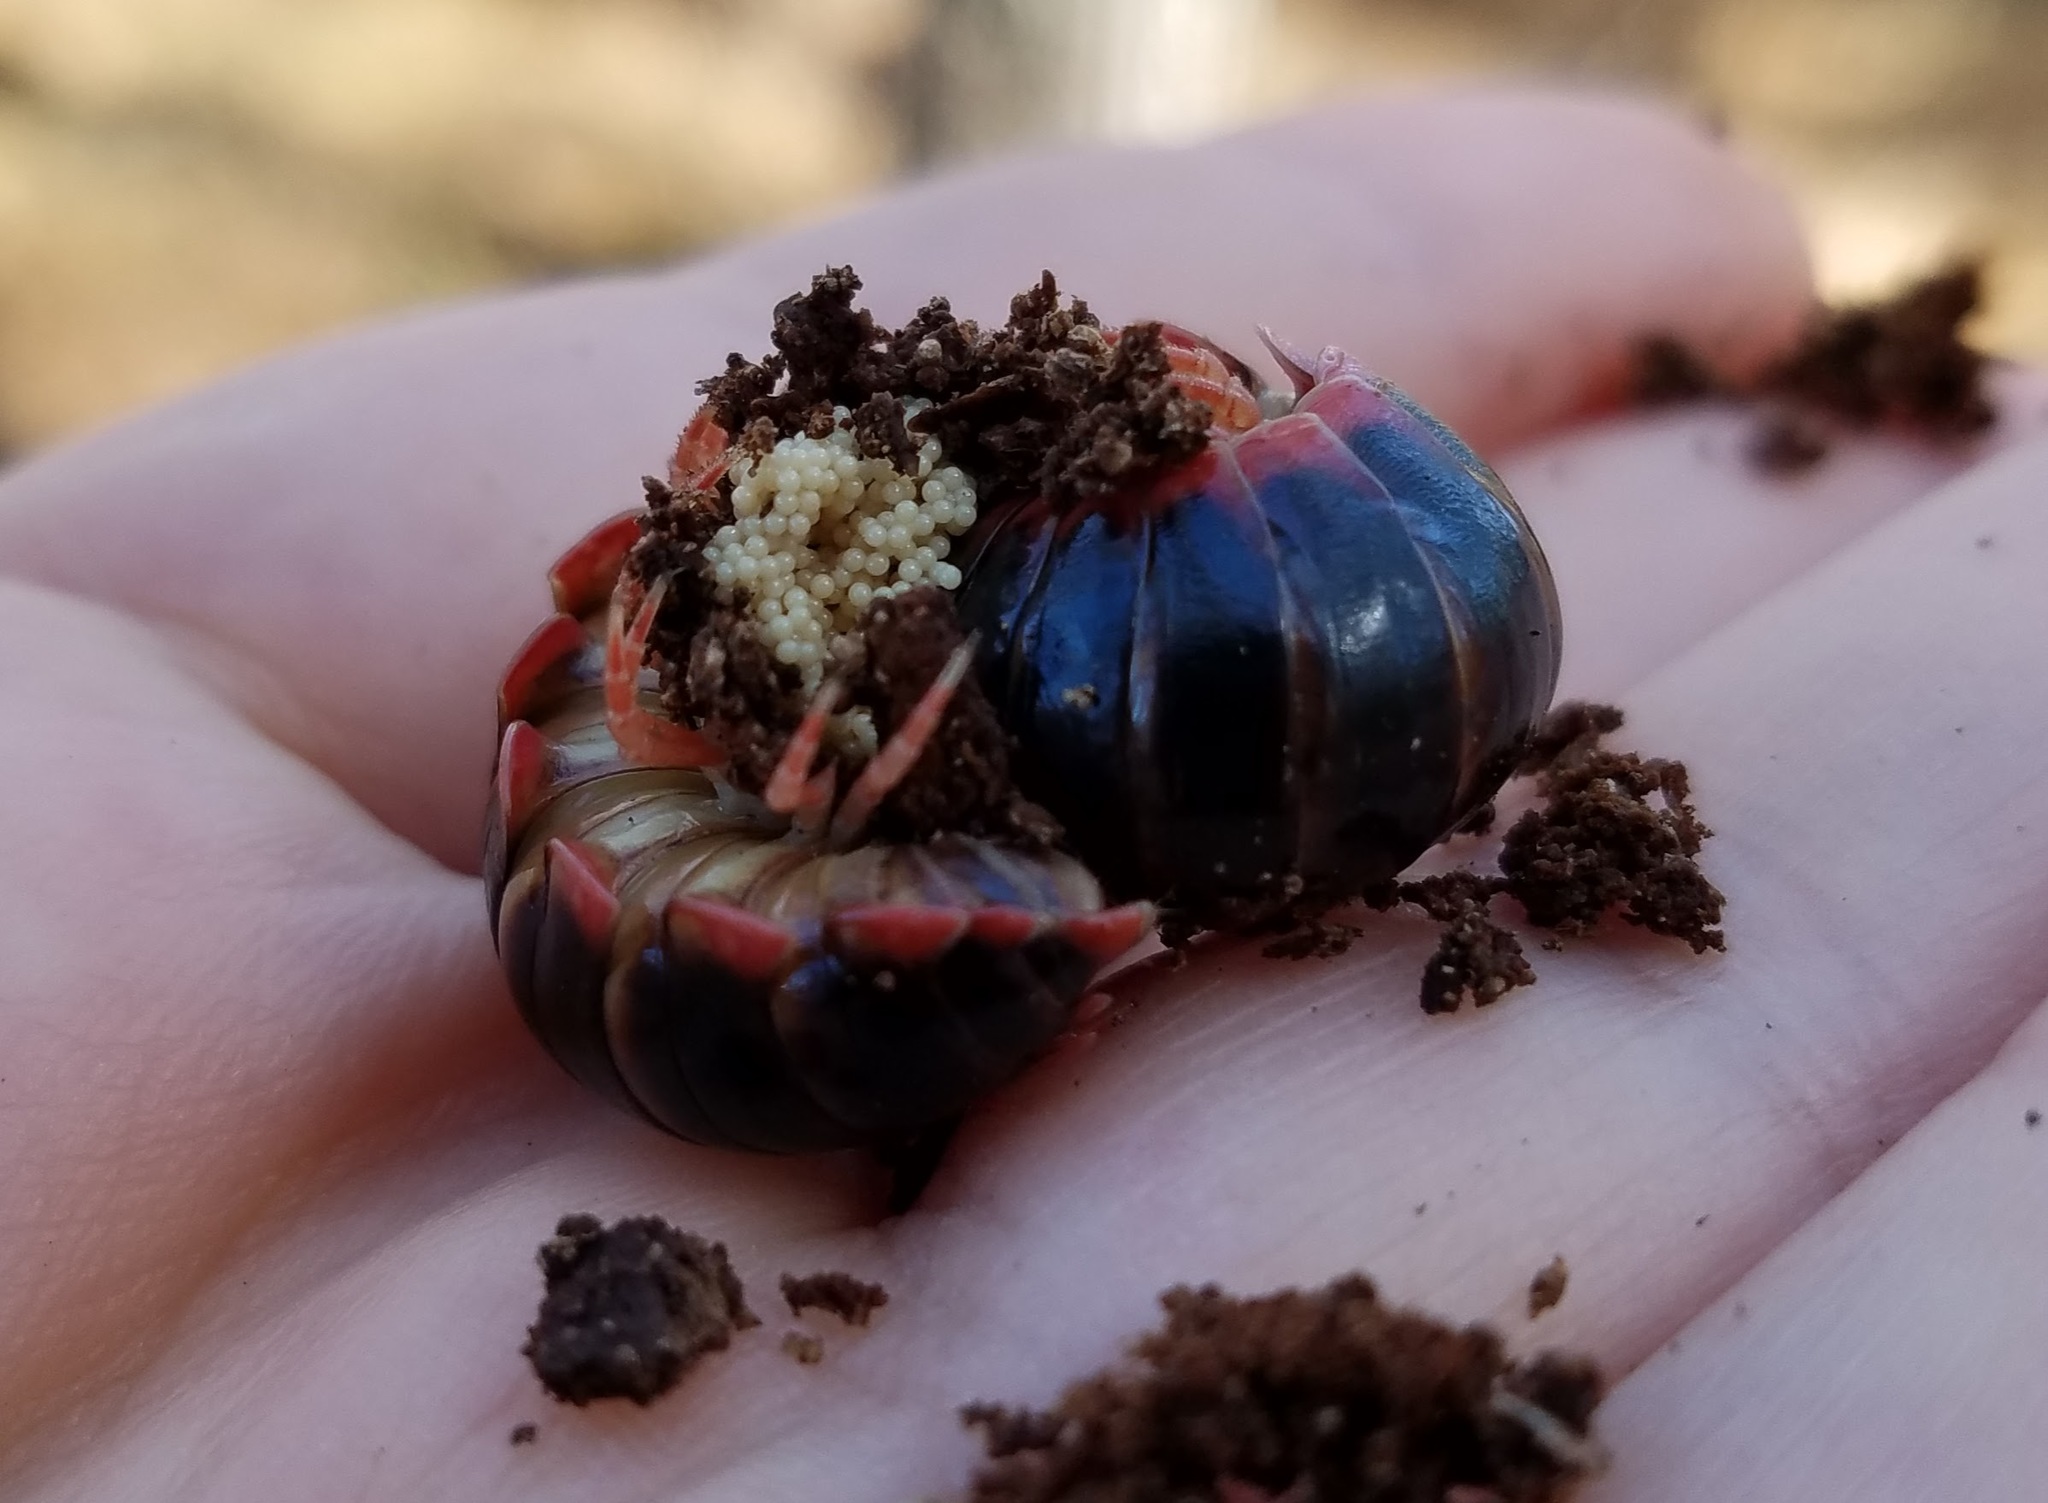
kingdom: Animalia
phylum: Arthropoda
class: Diplopoda
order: Polydesmida
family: Xystodesmidae
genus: Cleptoria
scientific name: Cleptoria abbotti
